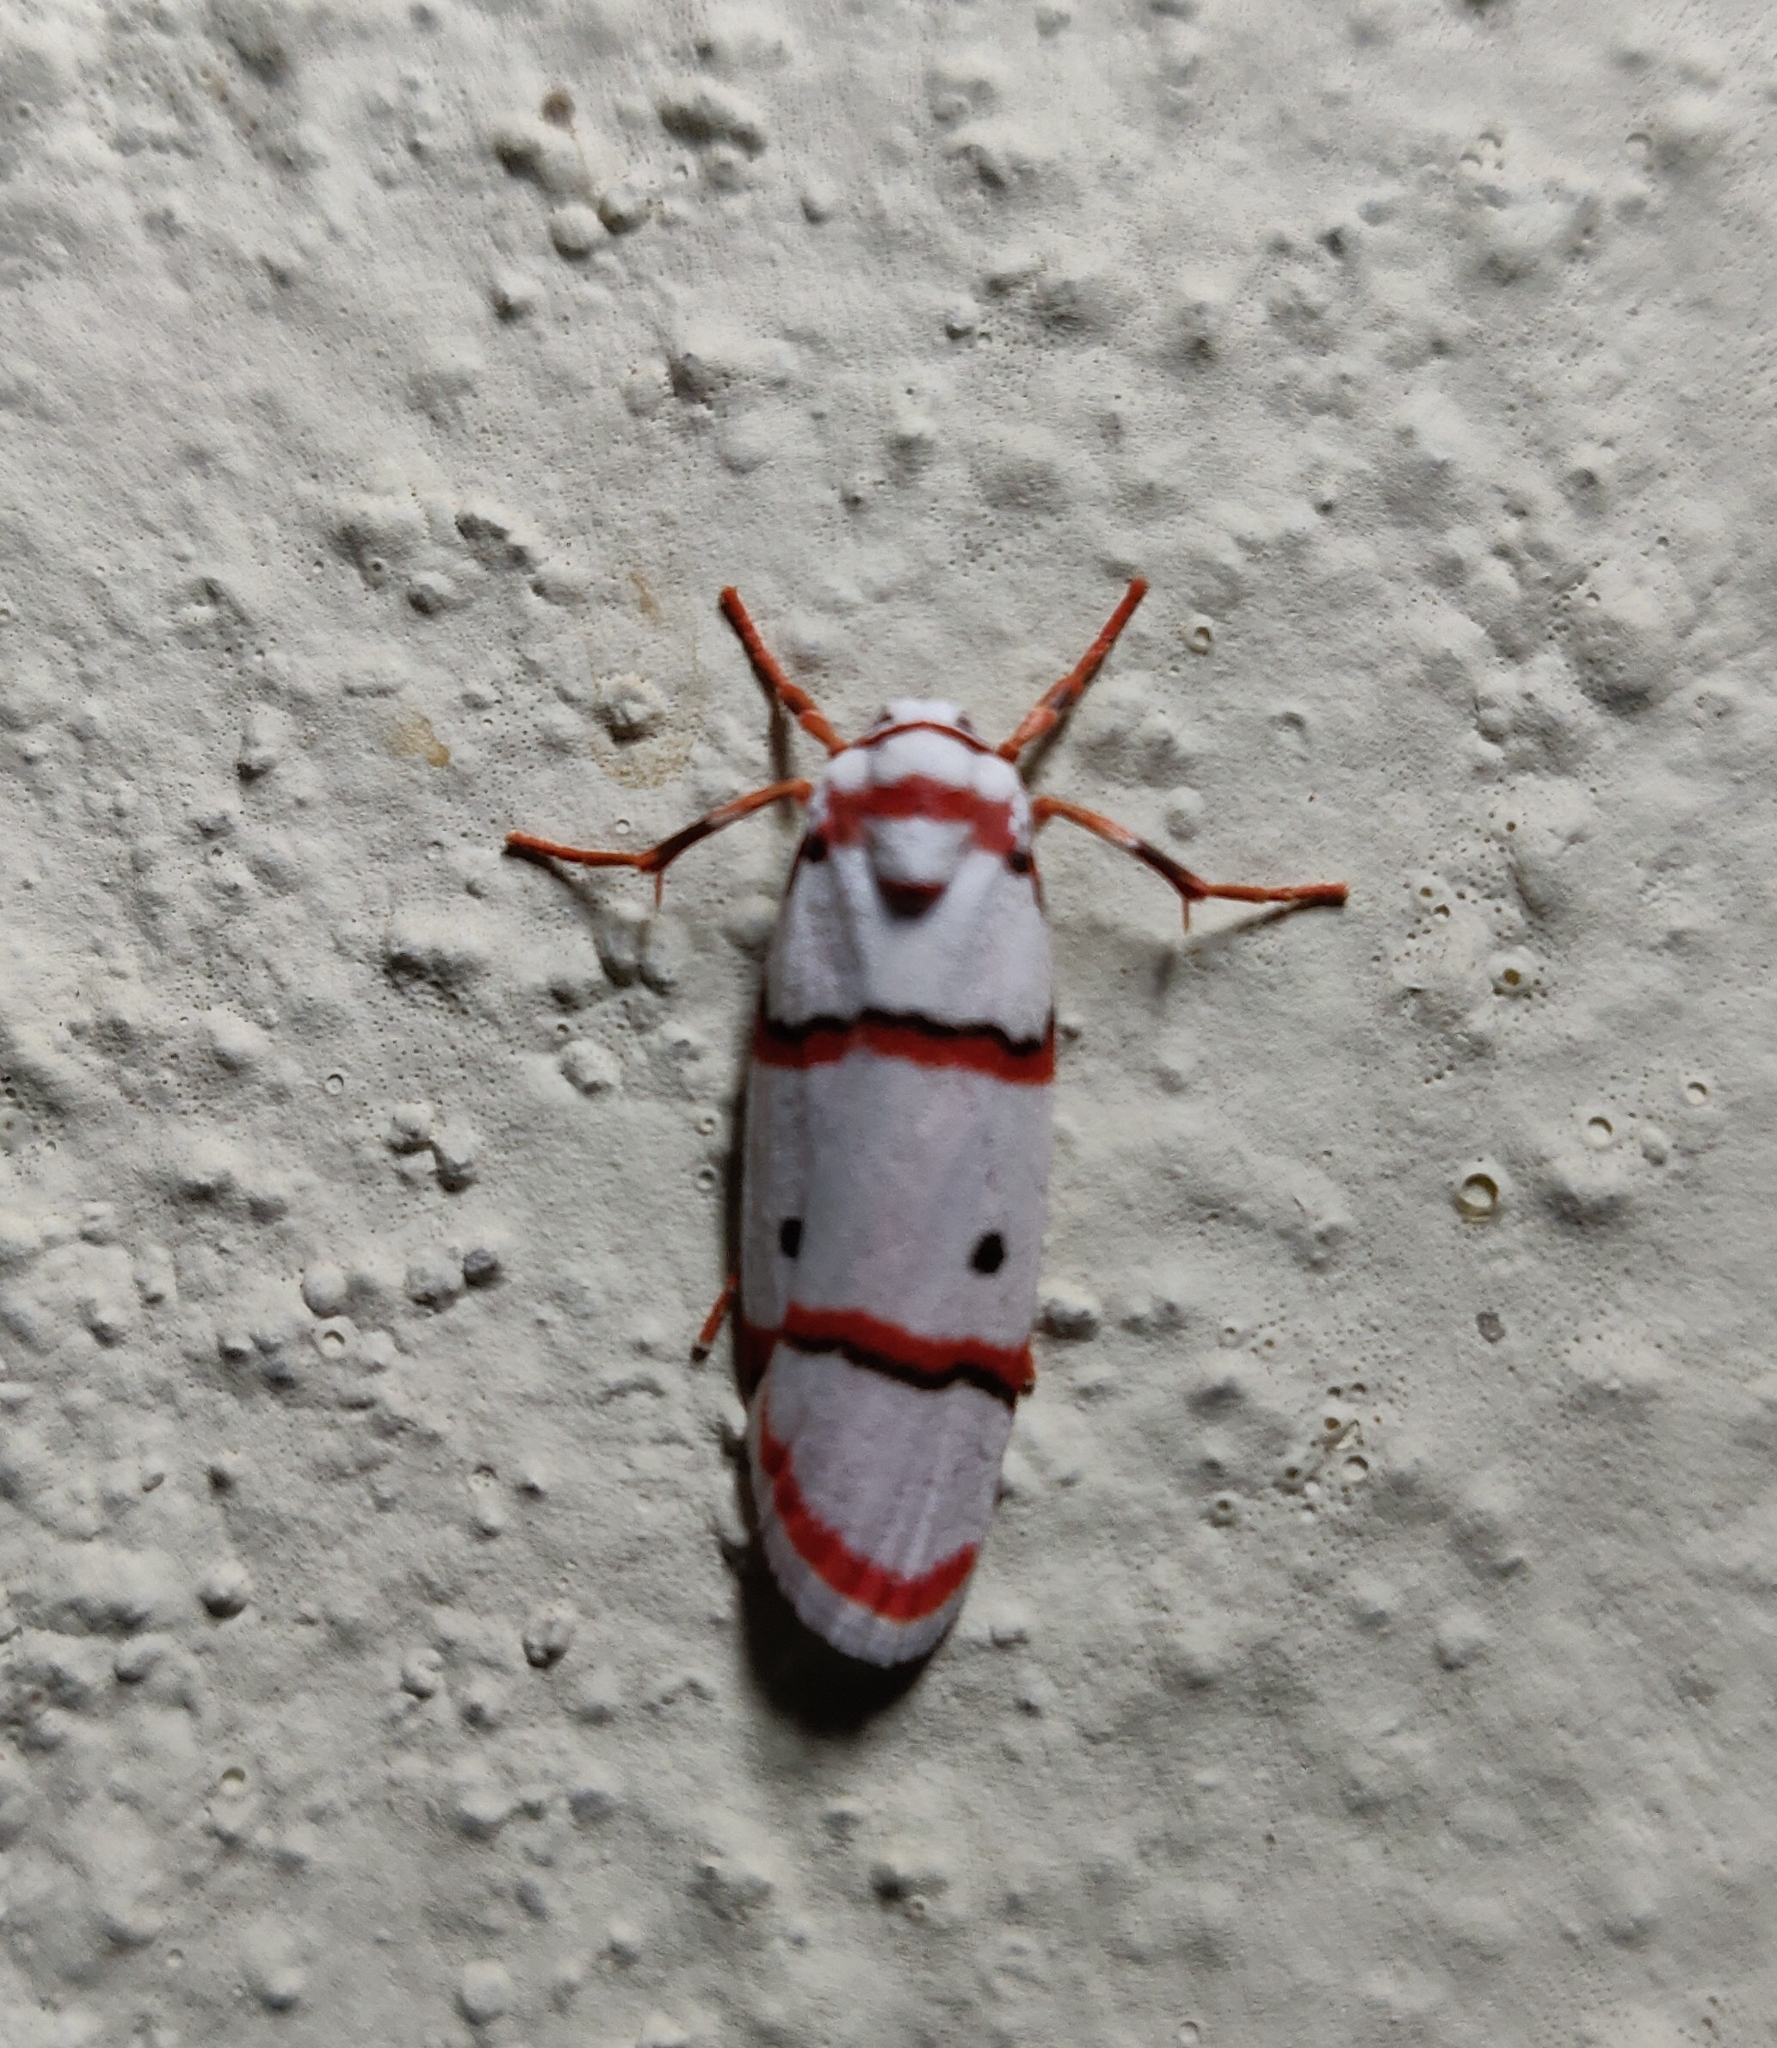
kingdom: Animalia
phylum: Arthropoda
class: Insecta
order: Lepidoptera
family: Erebidae
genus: Cyana
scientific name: Cyana peregrina
